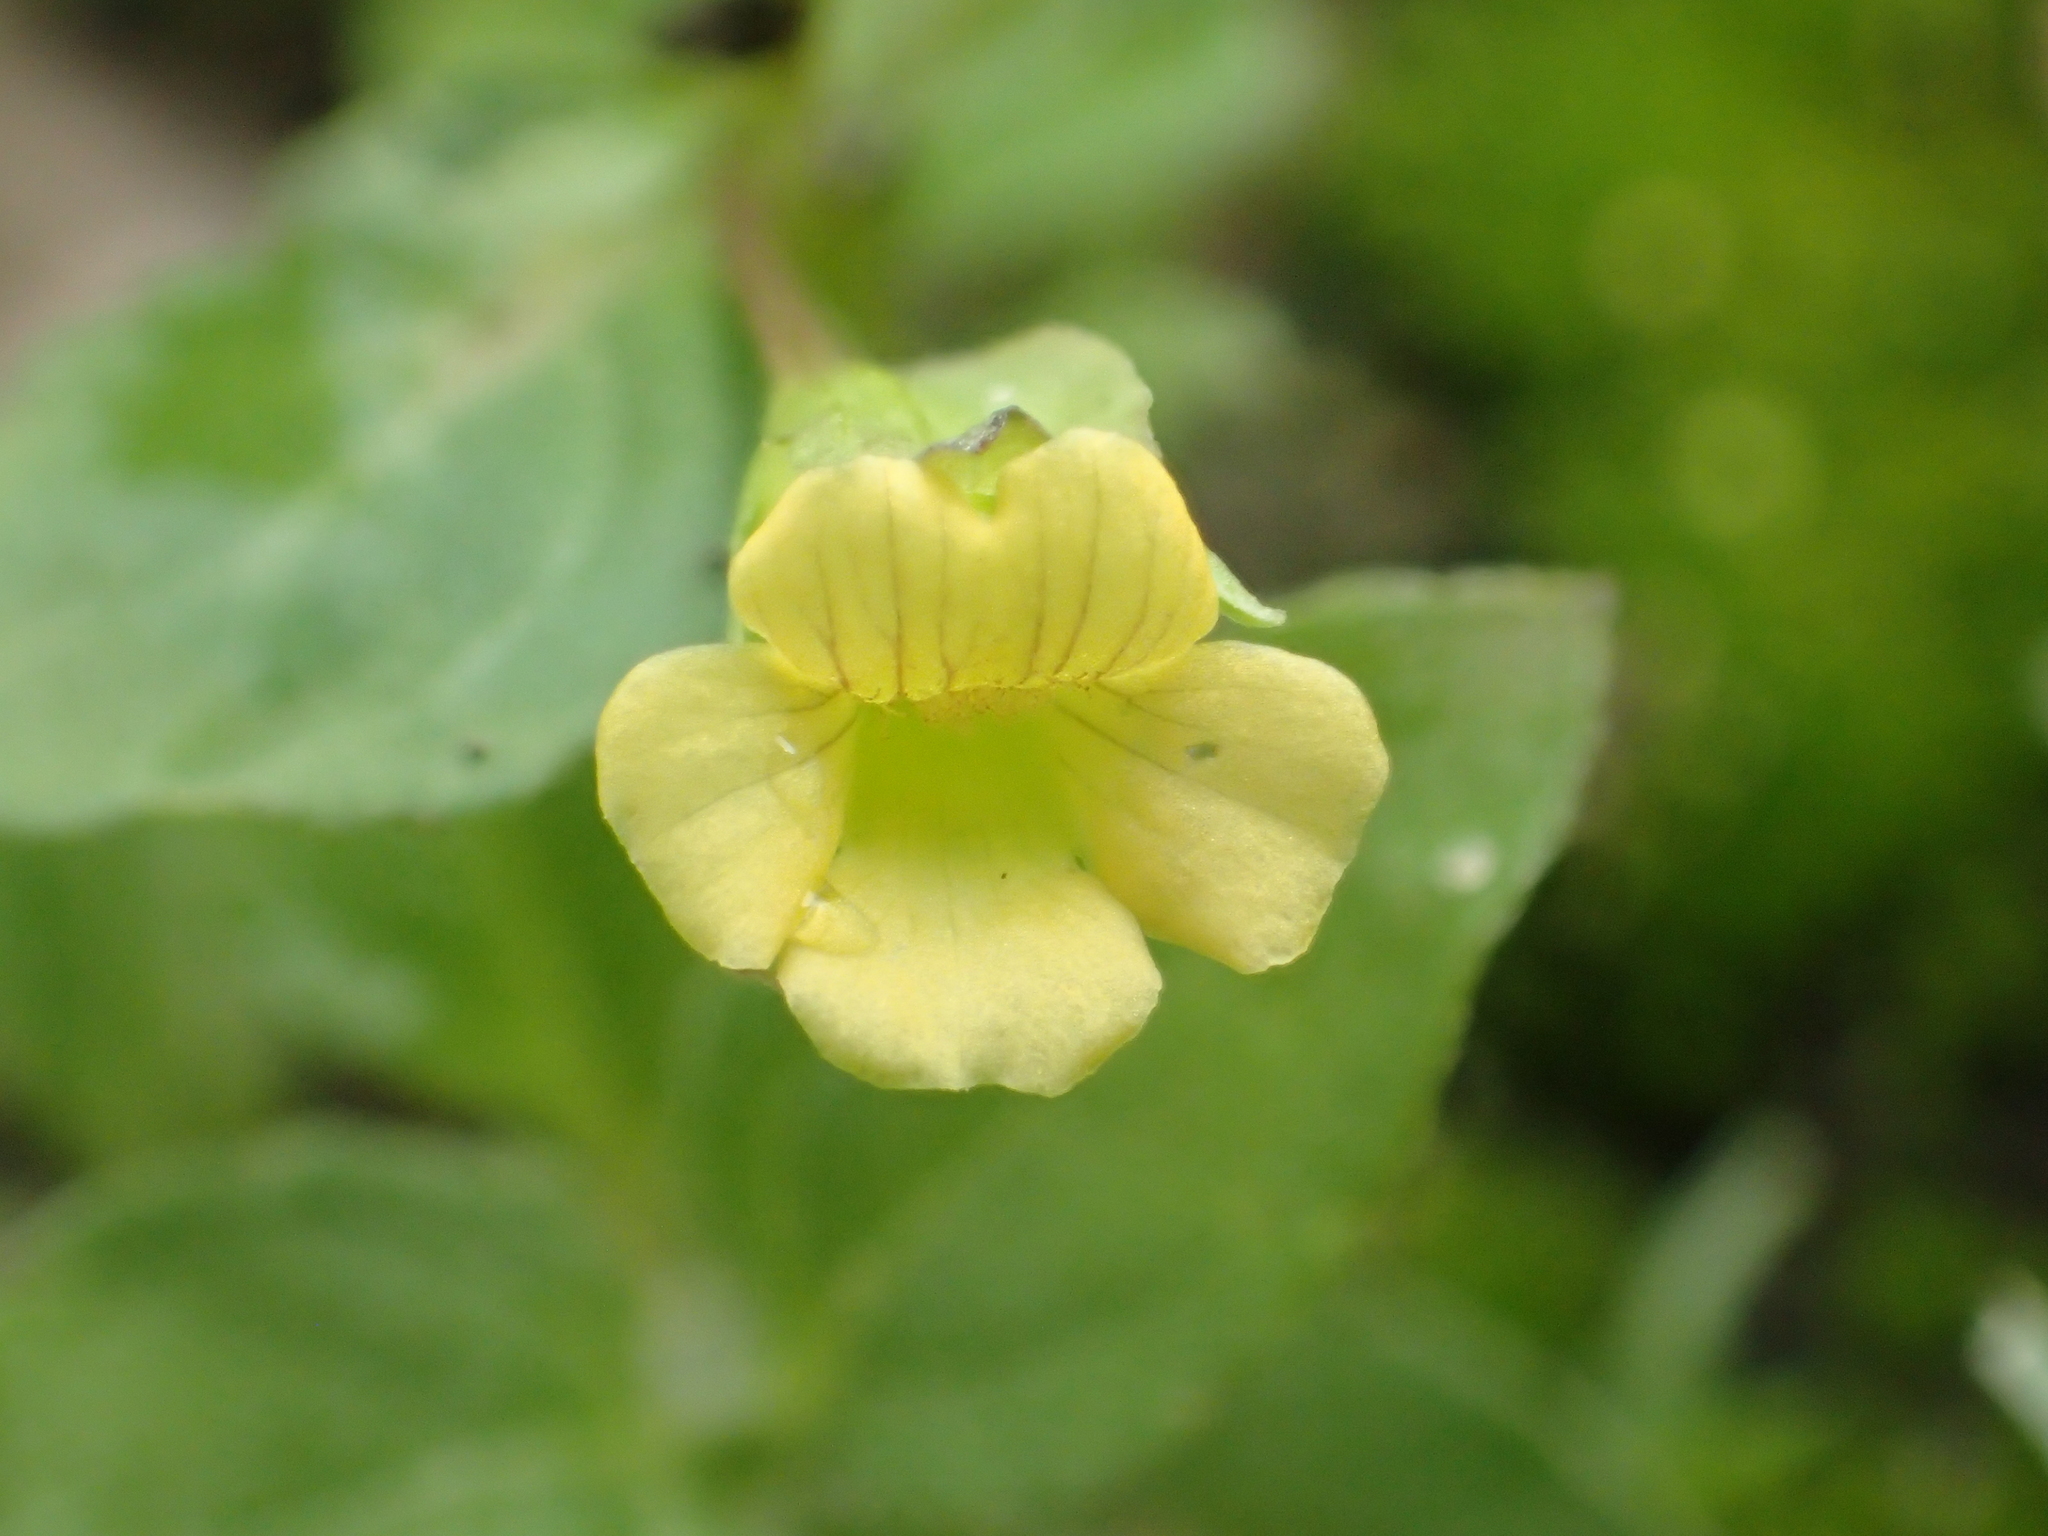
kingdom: Plantae
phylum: Tracheophyta
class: Magnoliopsida
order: Lamiales
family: Plantaginaceae
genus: Mecardonia
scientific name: Mecardonia procumbens
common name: Baby jump-up
